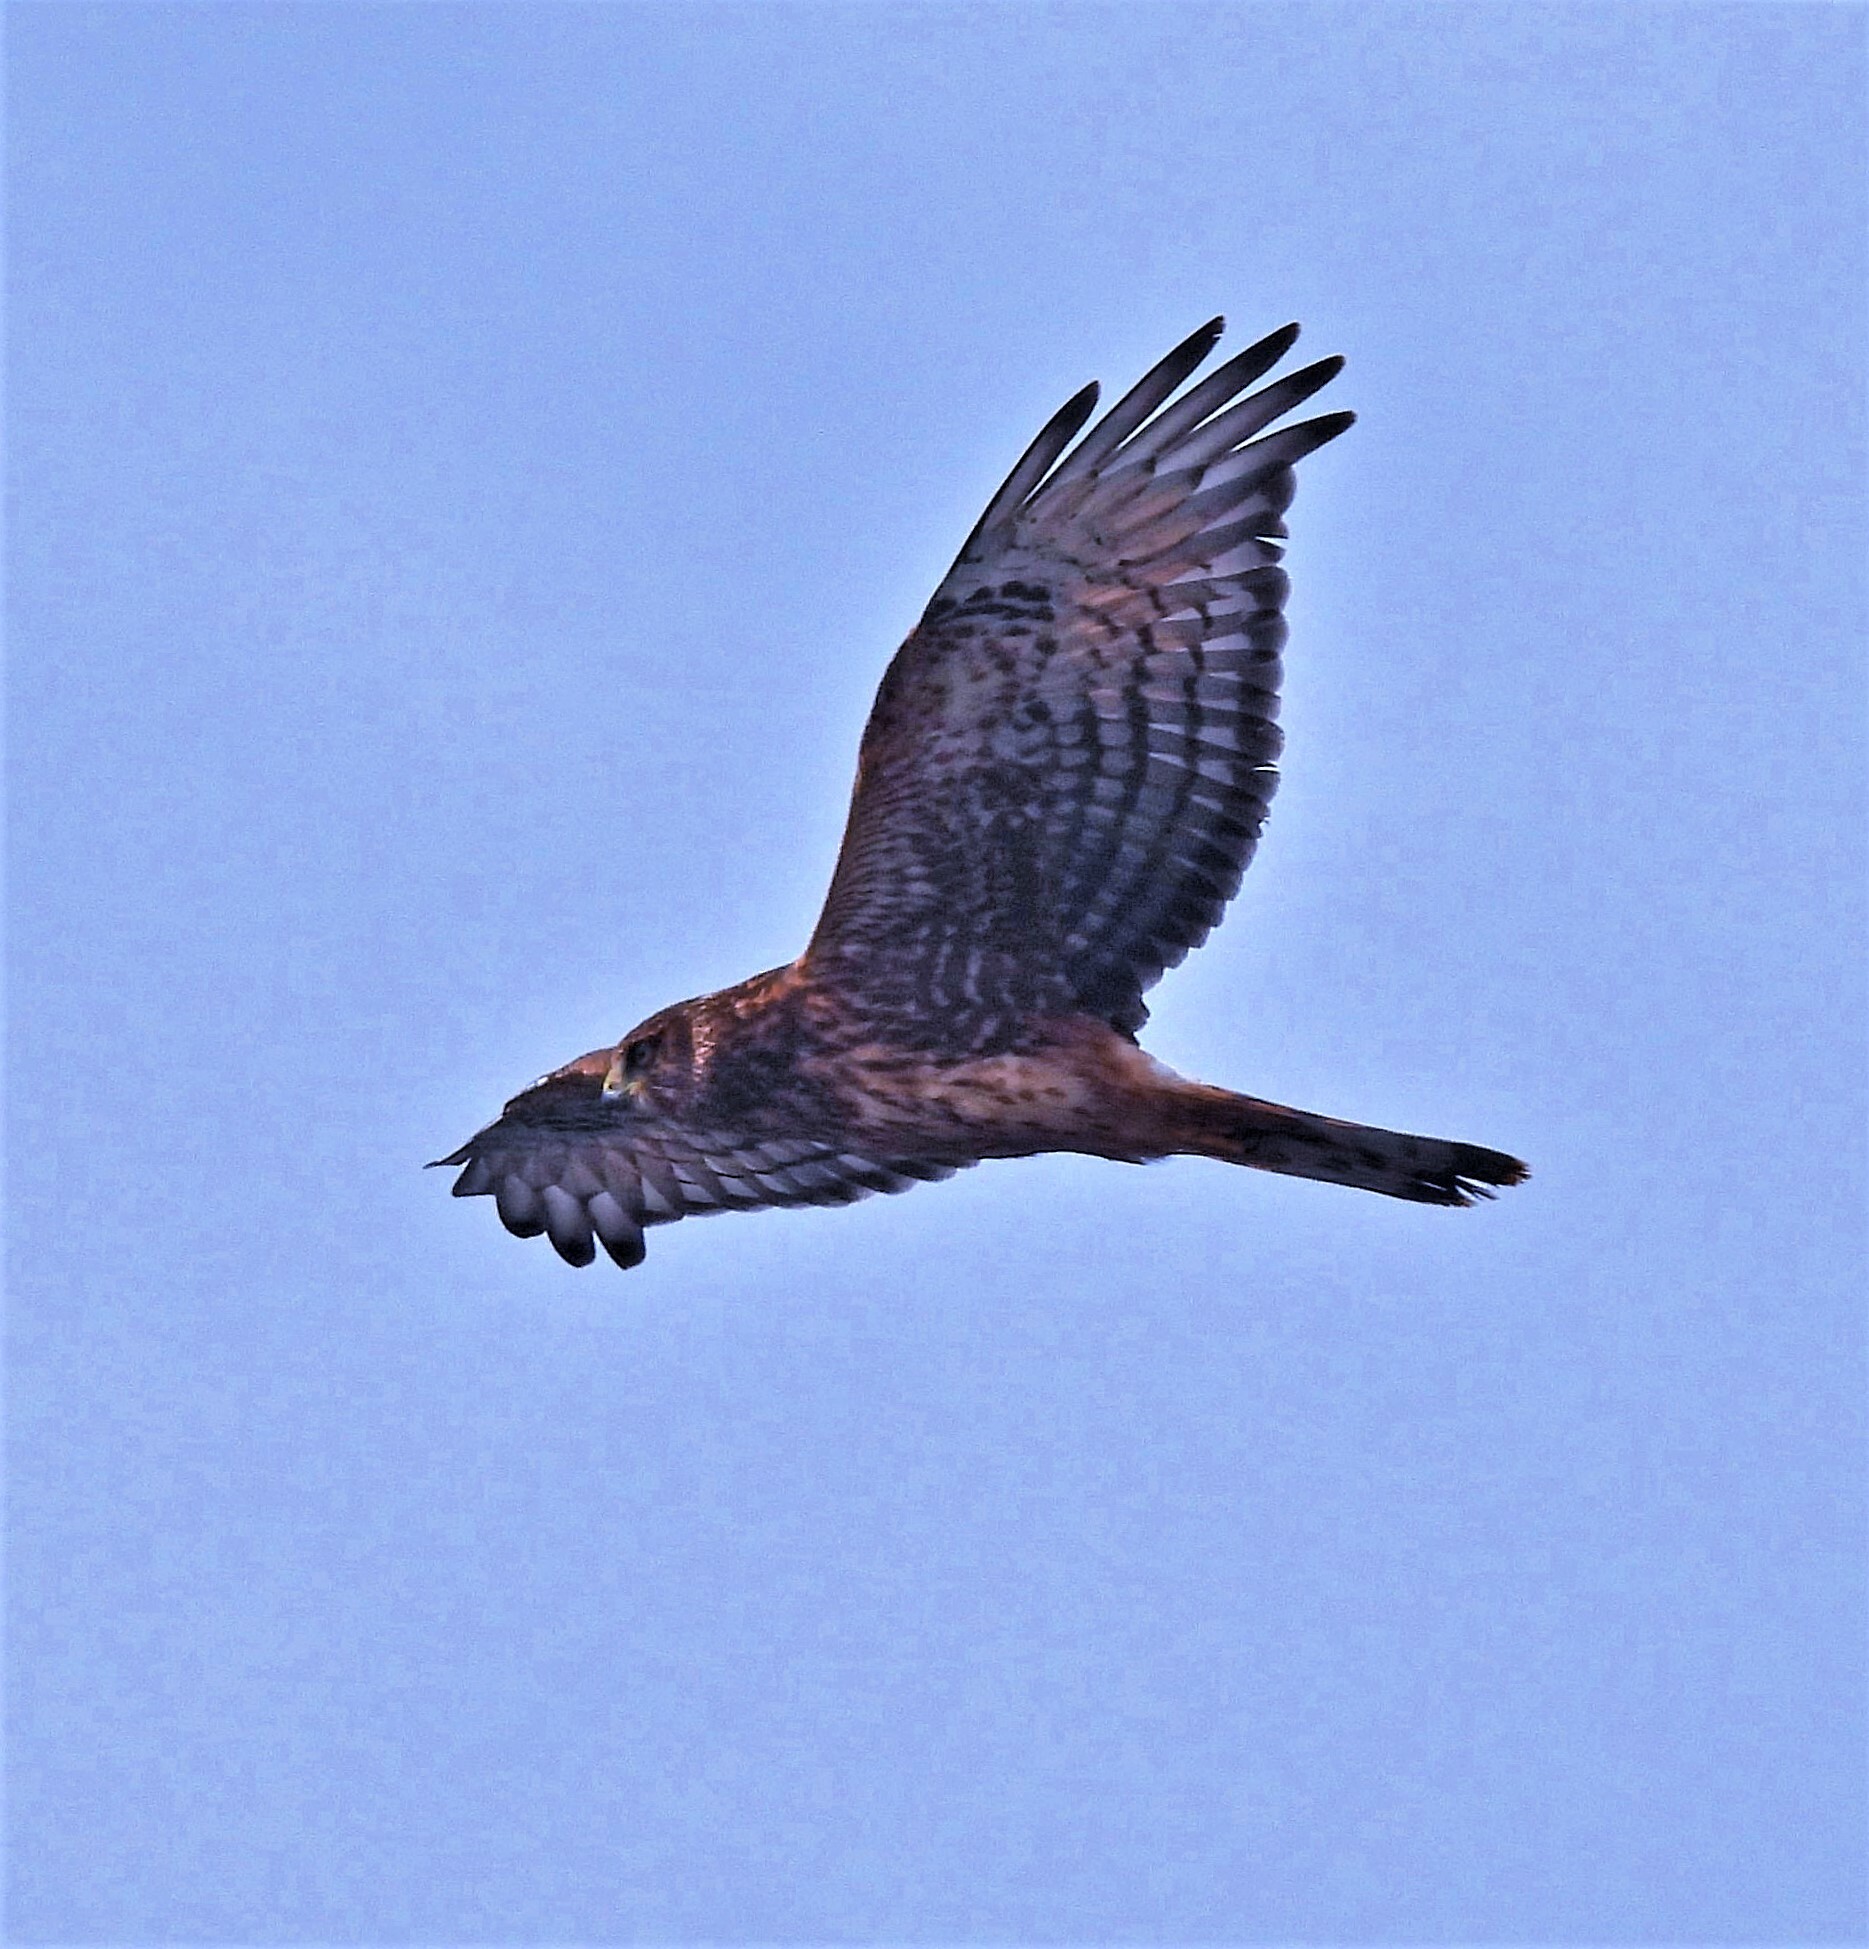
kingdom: Animalia
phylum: Chordata
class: Aves
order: Accipitriformes
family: Accipitridae
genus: Circus
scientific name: Circus cinereus
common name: Cinereous harrier
